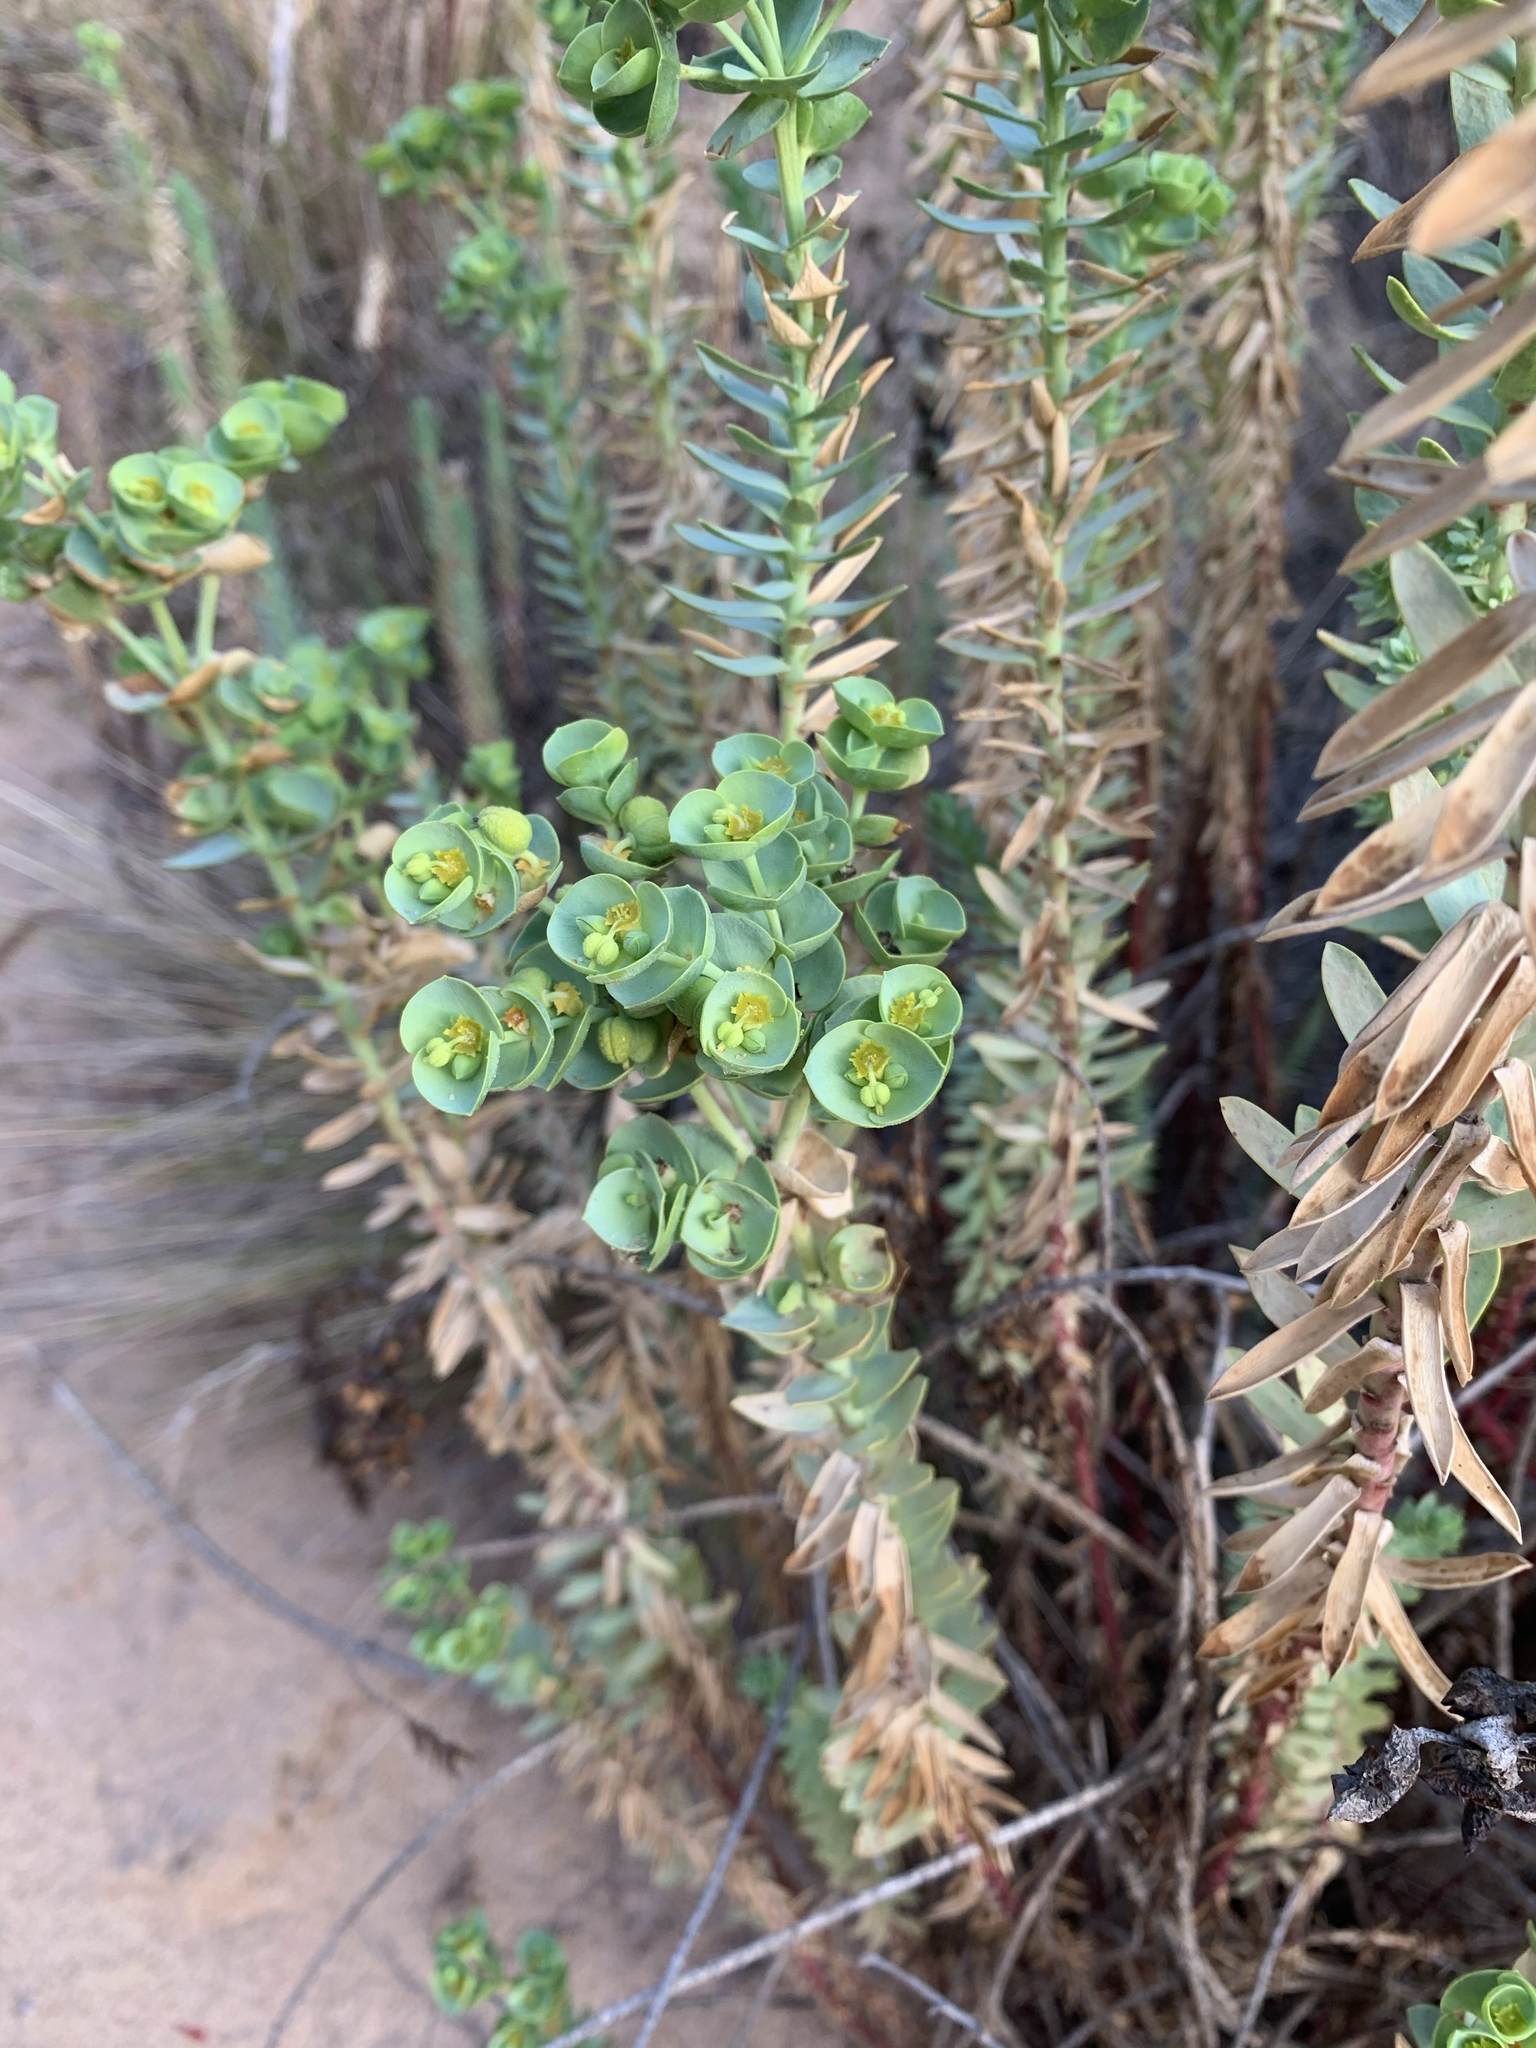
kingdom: Plantae
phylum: Tracheophyta
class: Magnoliopsida
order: Malpighiales
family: Euphorbiaceae
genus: Euphorbia
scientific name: Euphorbia paralias
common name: Sea spurge
